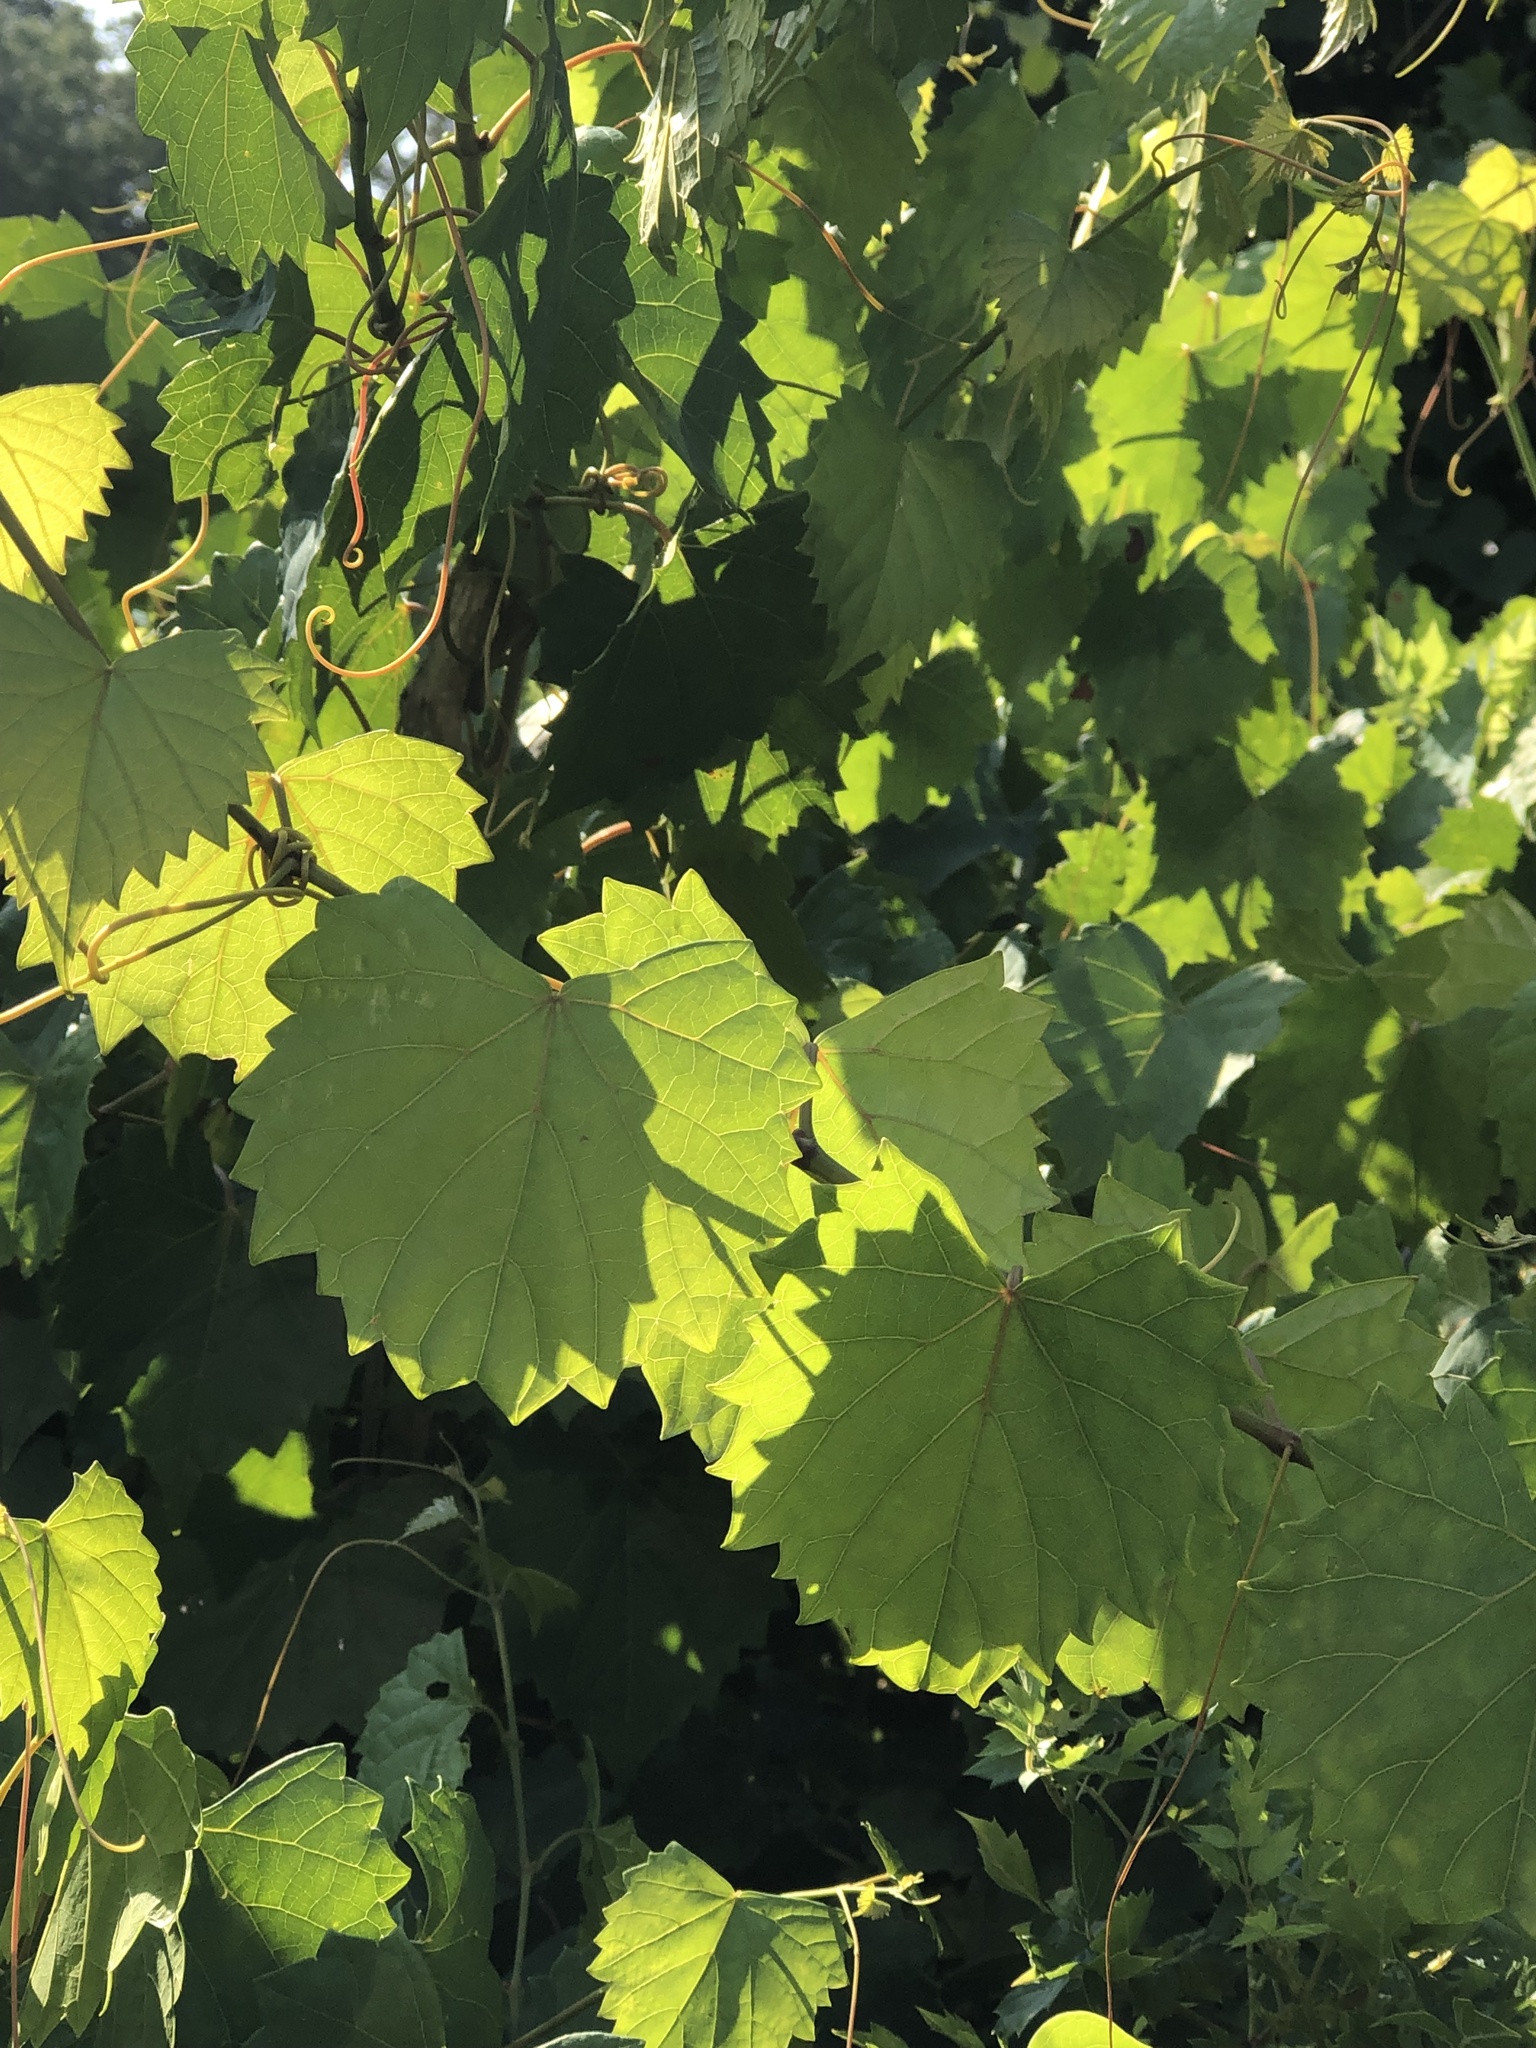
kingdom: Plantae
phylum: Tracheophyta
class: Magnoliopsida
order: Vitales
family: Vitaceae
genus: Vitis
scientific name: Vitis rotundifolia
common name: Muscadine grape
